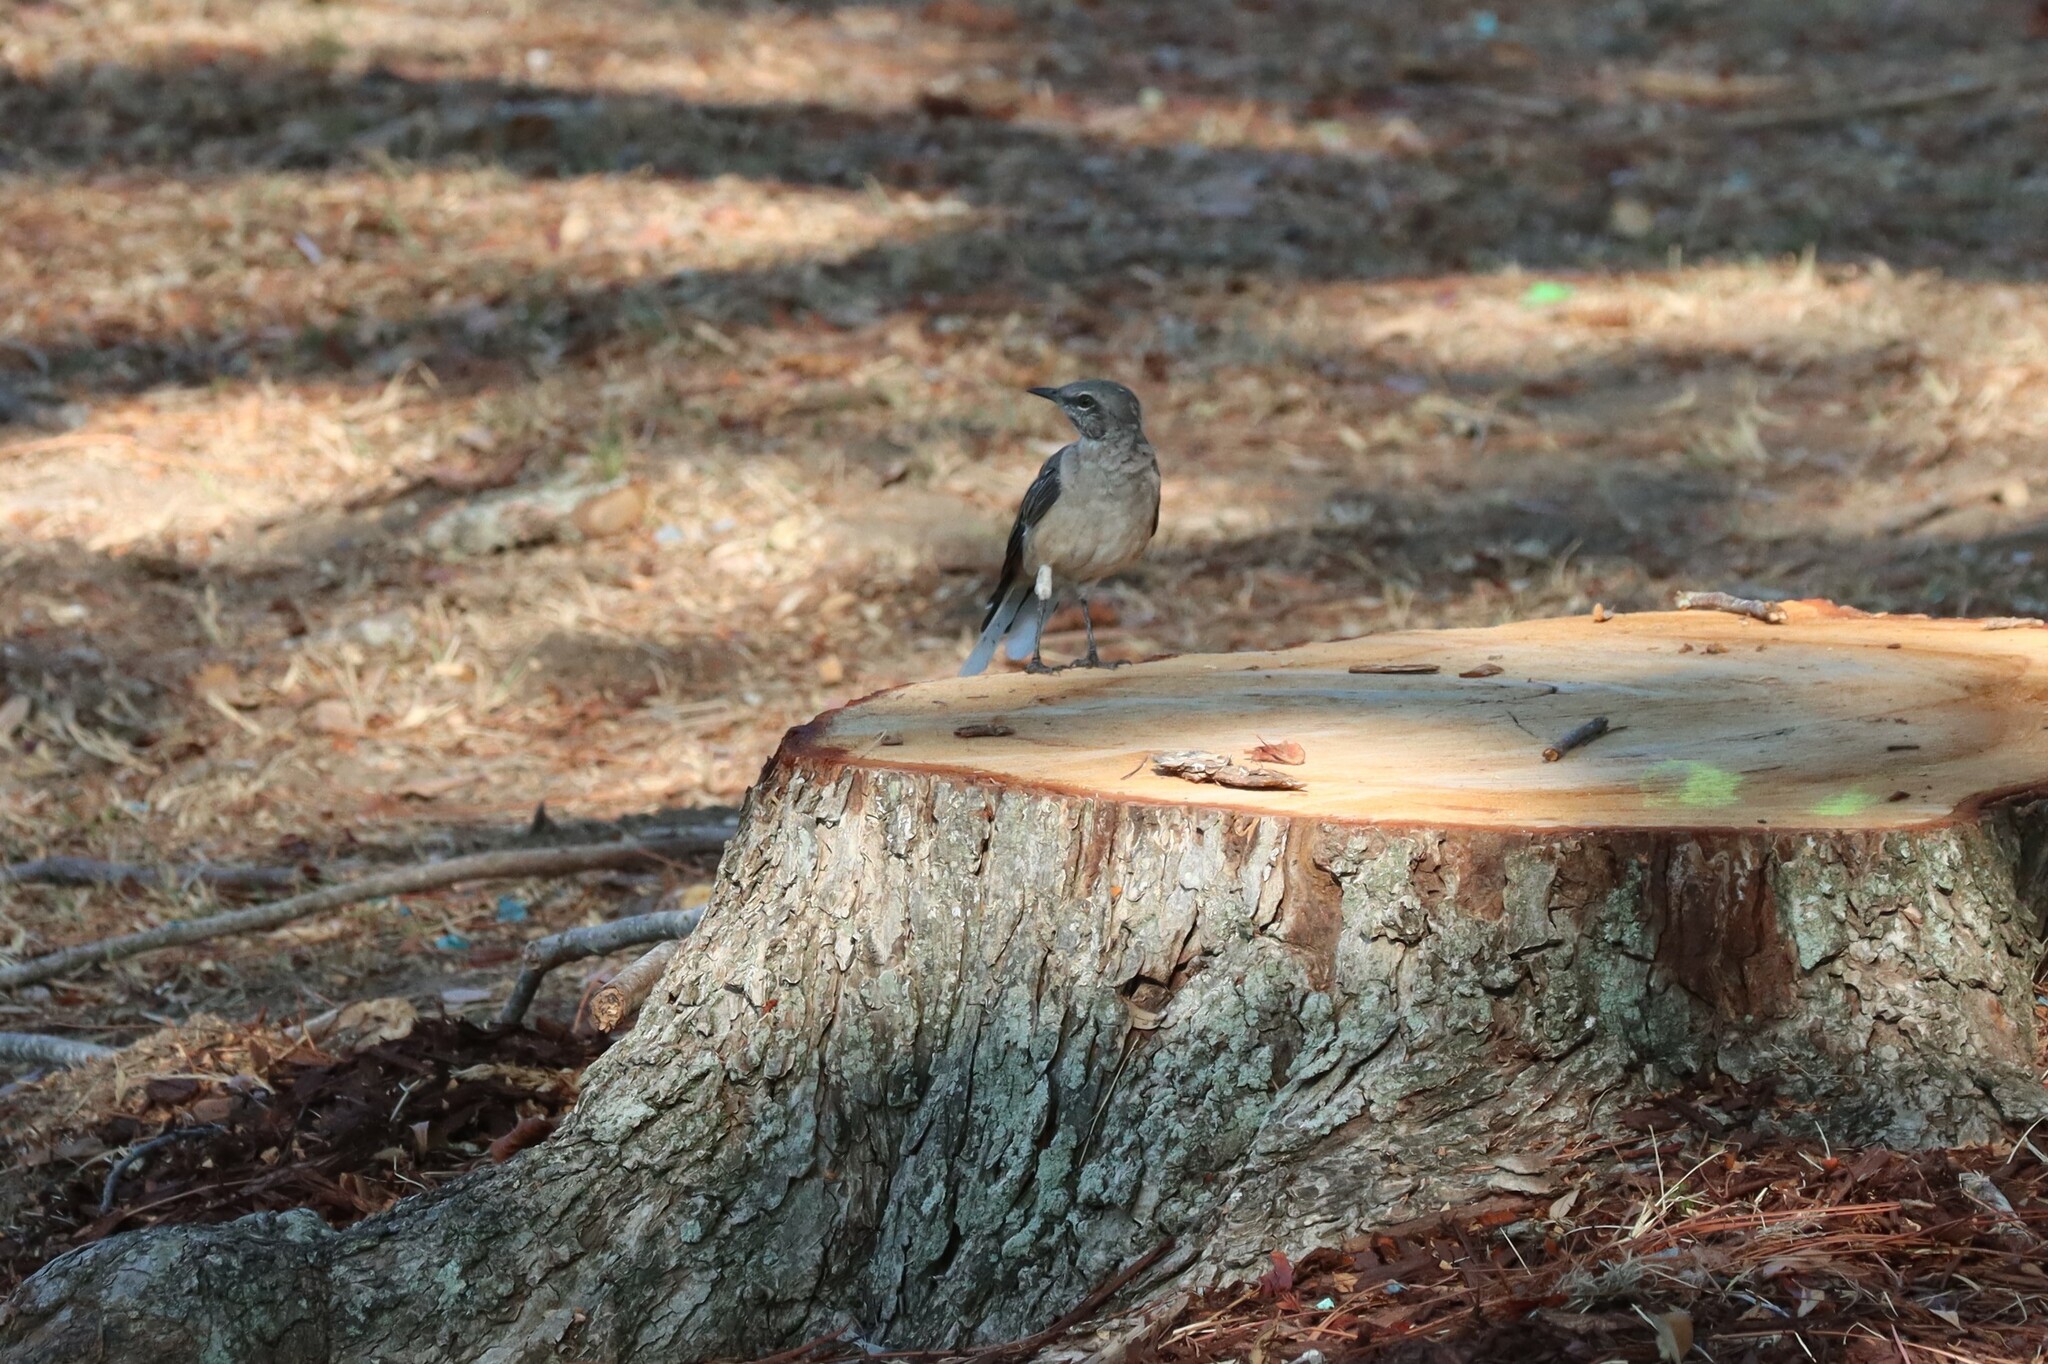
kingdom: Animalia
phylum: Chordata
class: Aves
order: Passeriformes
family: Mimidae
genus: Mimus
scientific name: Mimus polyglottos
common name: Northern mockingbird
